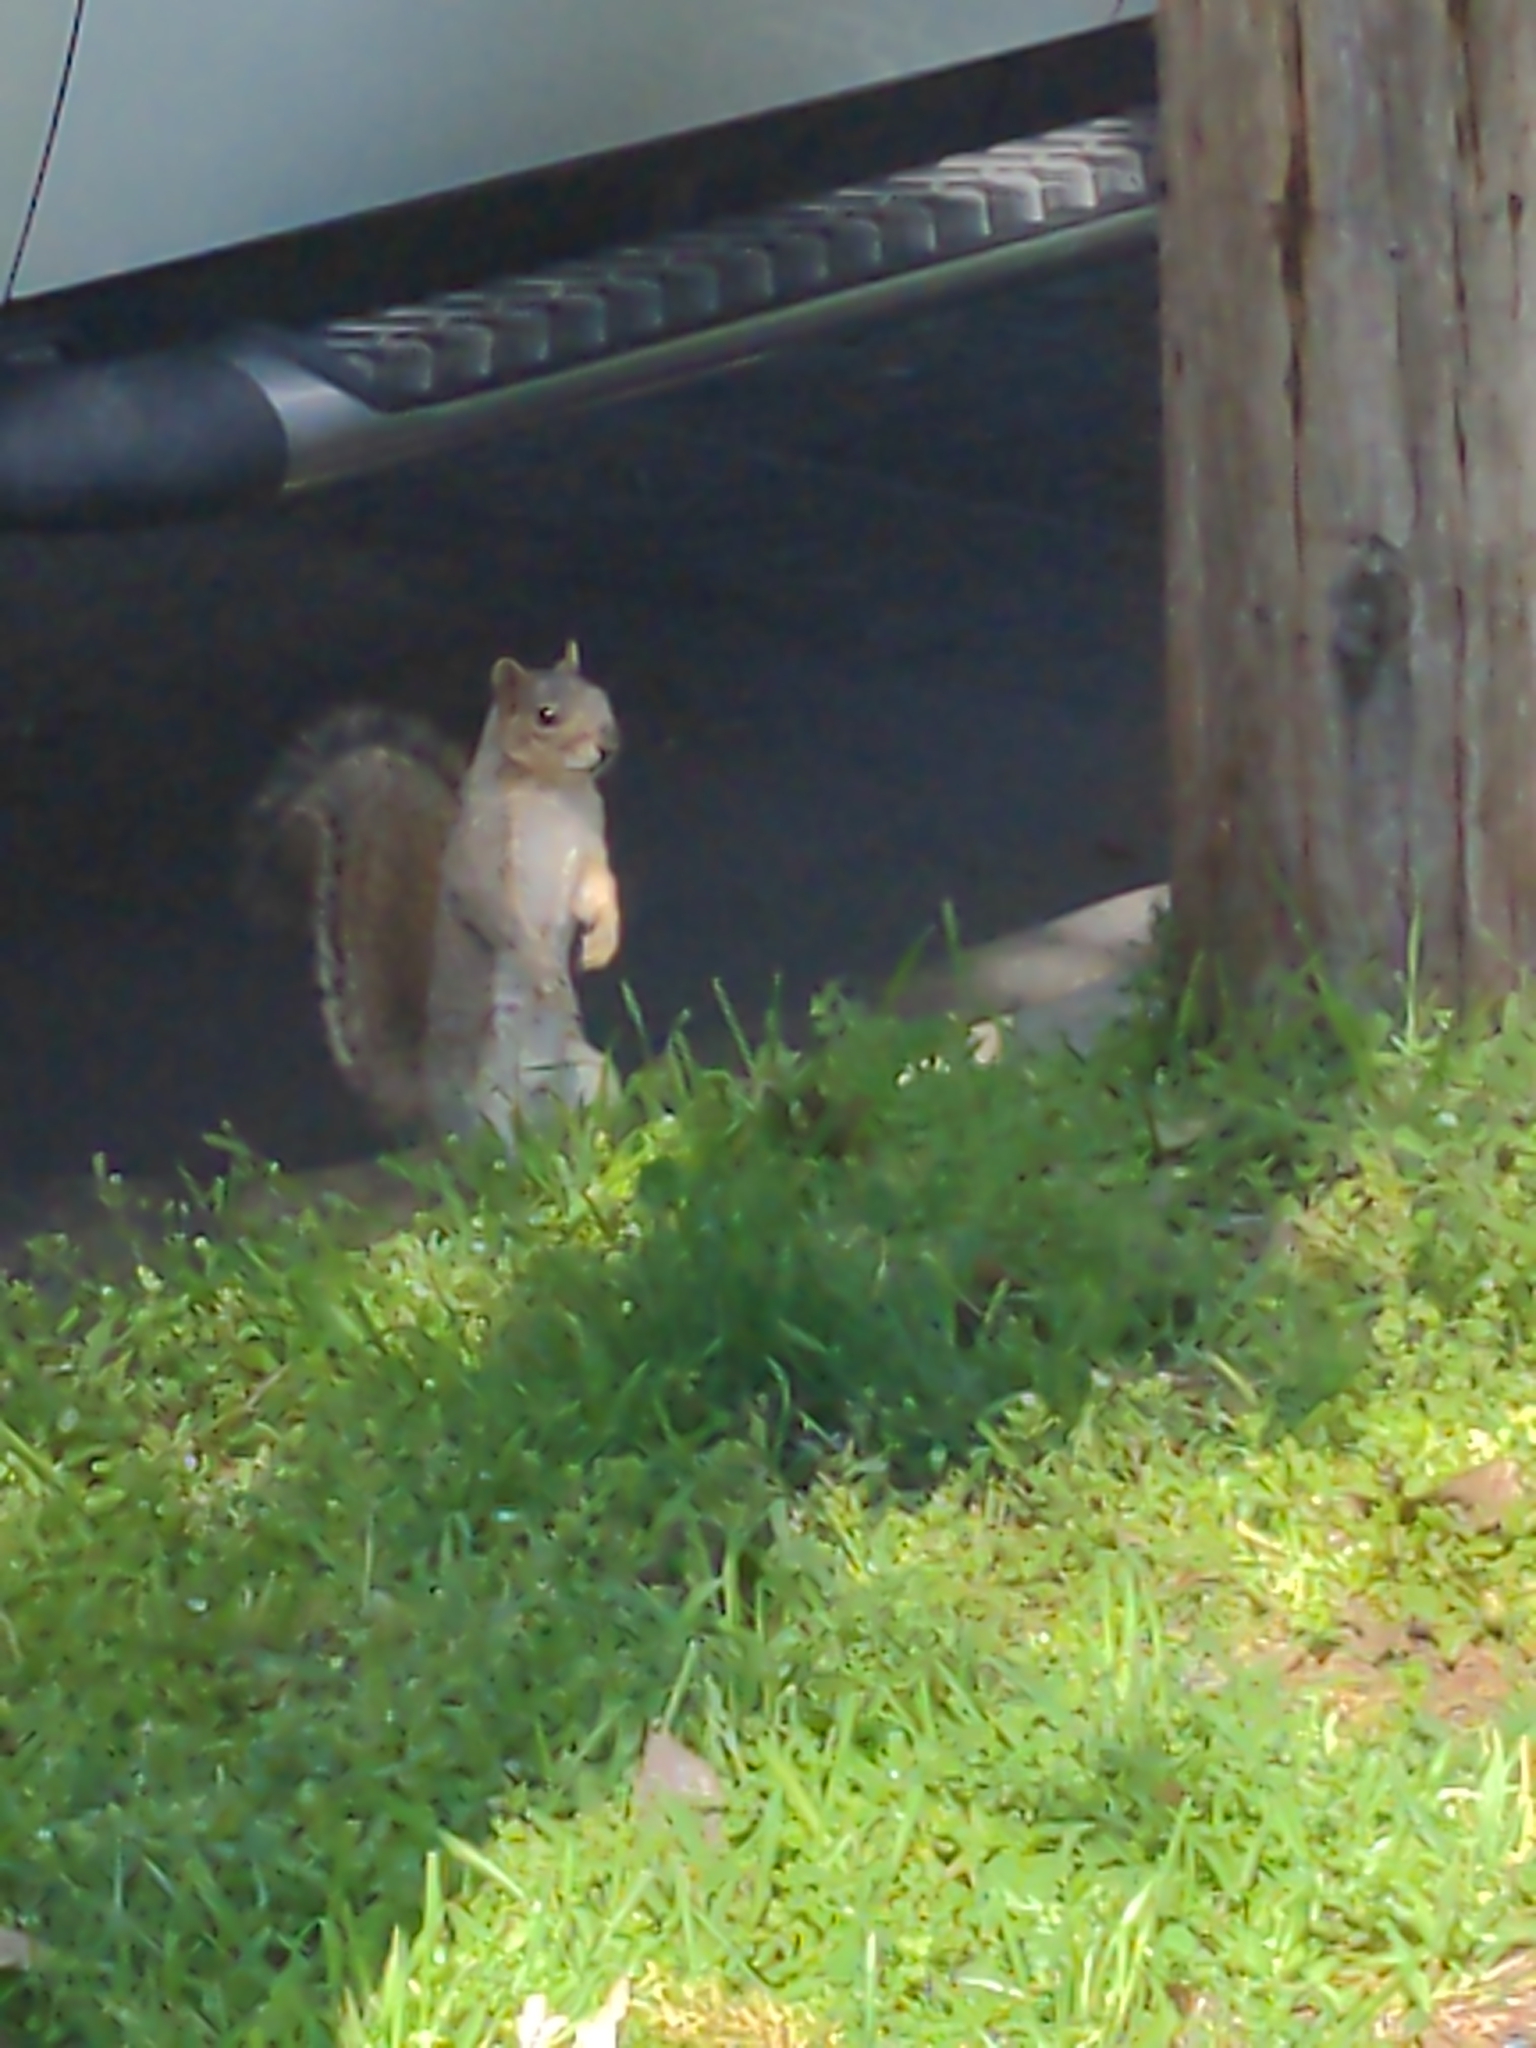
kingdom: Animalia
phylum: Chordata
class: Mammalia
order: Rodentia
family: Sciuridae
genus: Sciurus
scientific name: Sciurus niger
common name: Fox squirrel
